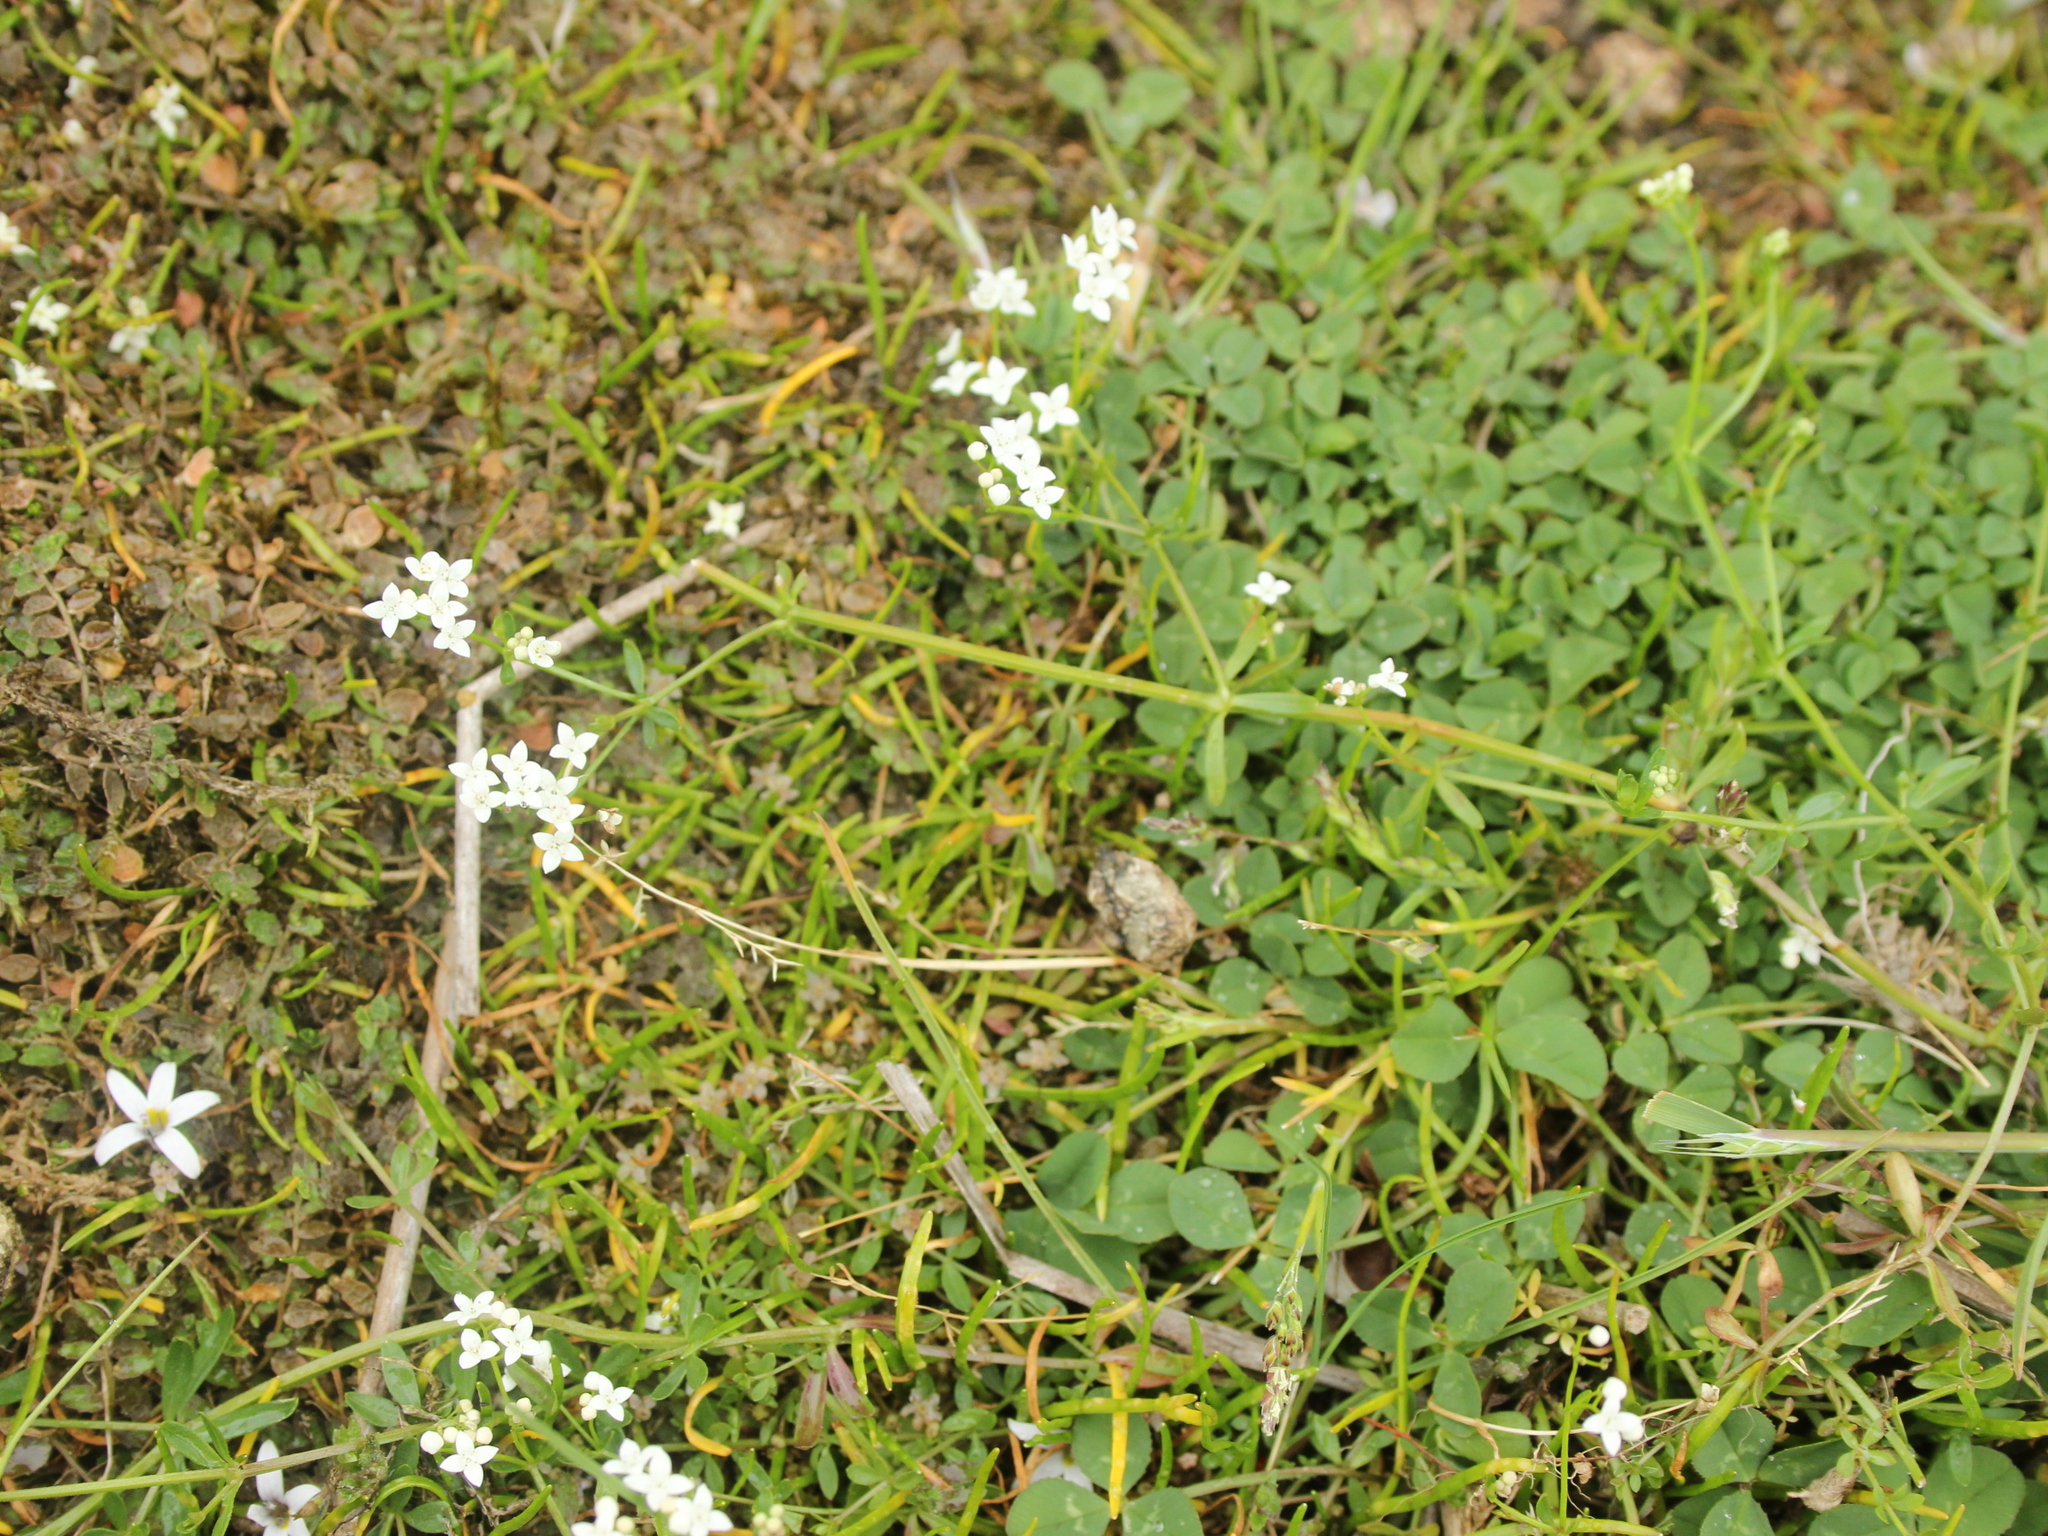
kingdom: Plantae
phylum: Tracheophyta
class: Magnoliopsida
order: Gentianales
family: Rubiaceae
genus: Galium
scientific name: Galium palustre
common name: Common marsh-bedstraw
